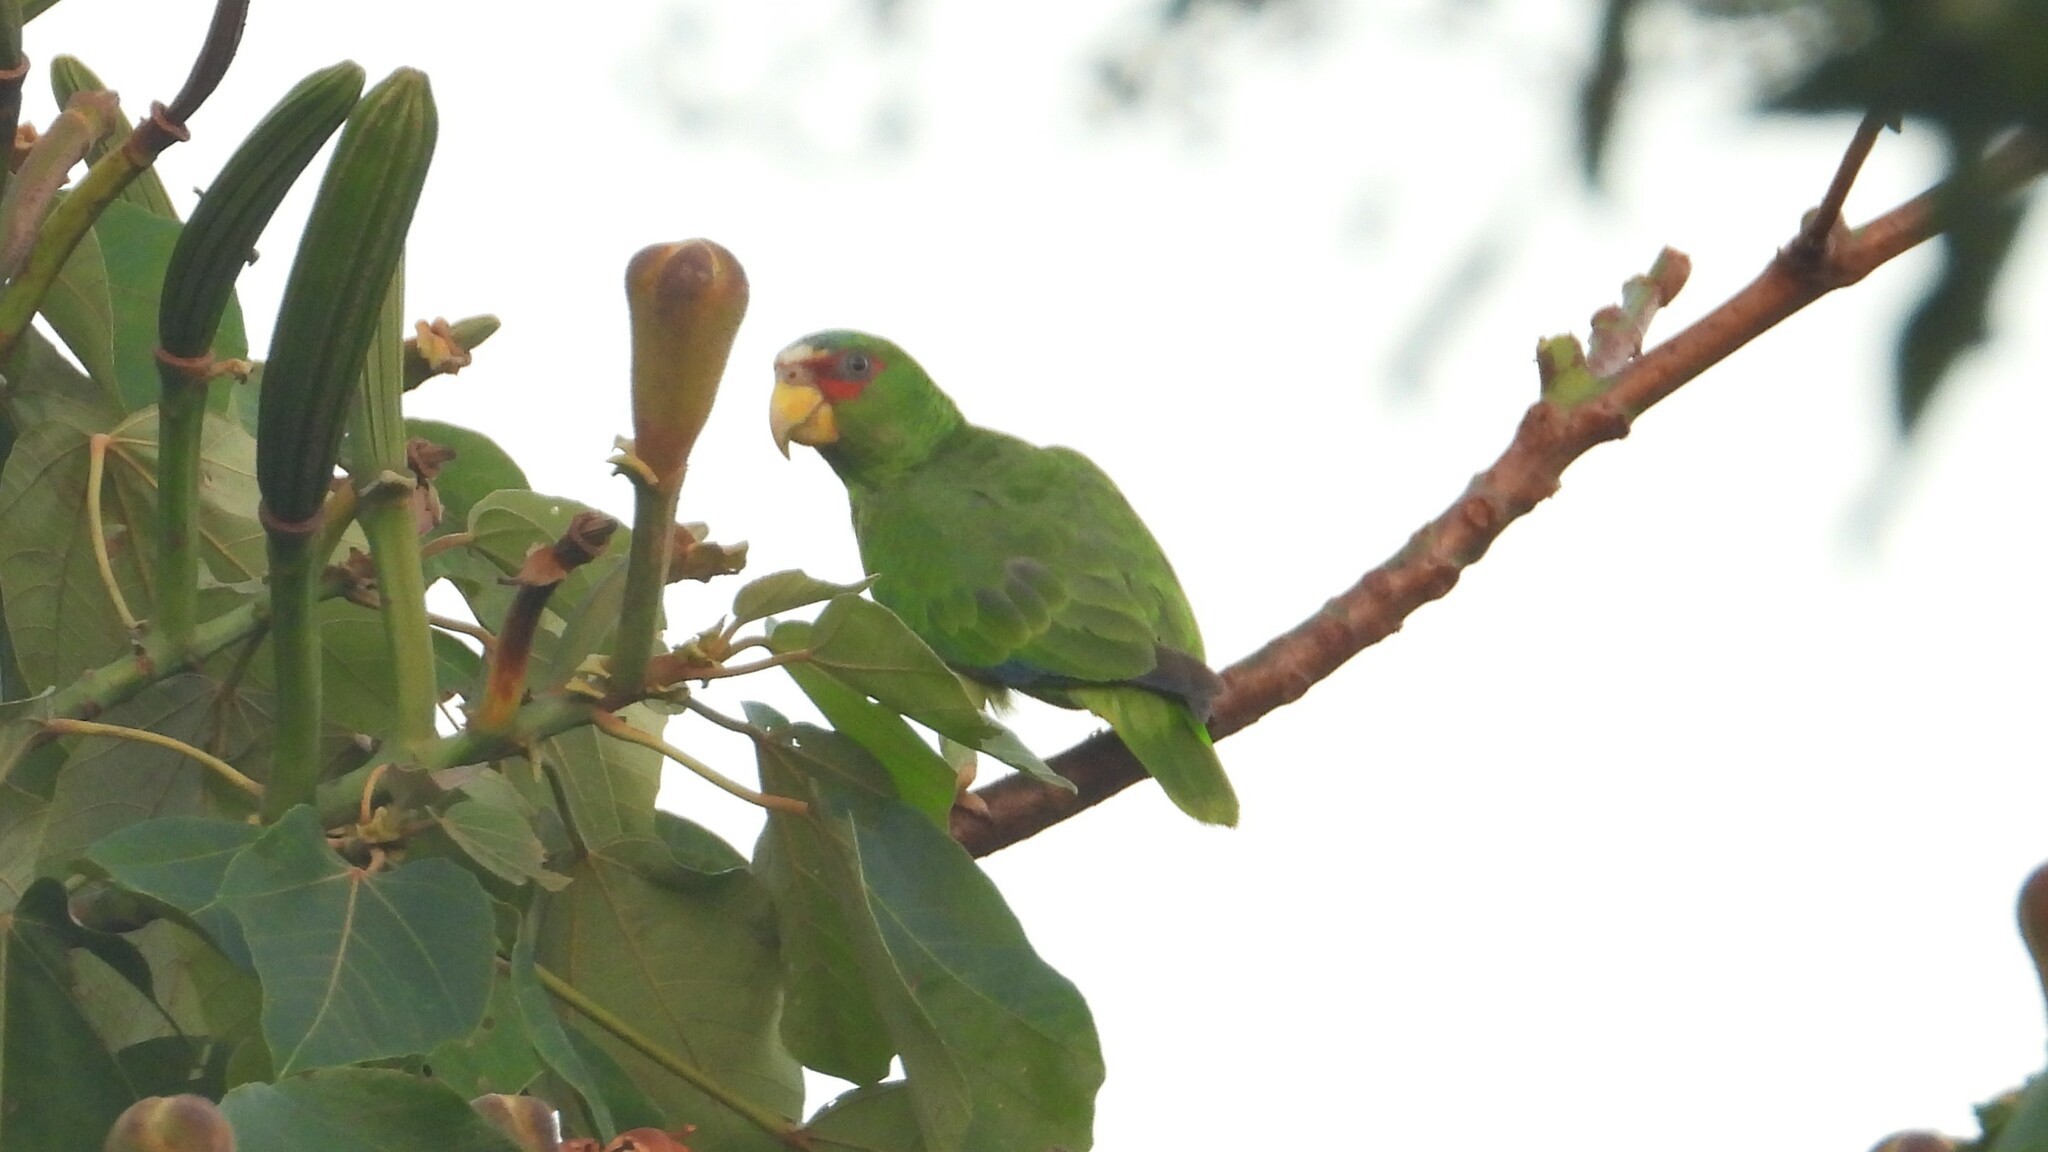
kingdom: Animalia
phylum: Chordata
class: Aves
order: Psittaciformes
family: Psittacidae
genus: Amazona
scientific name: Amazona albifrons
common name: White-fronted amazon
